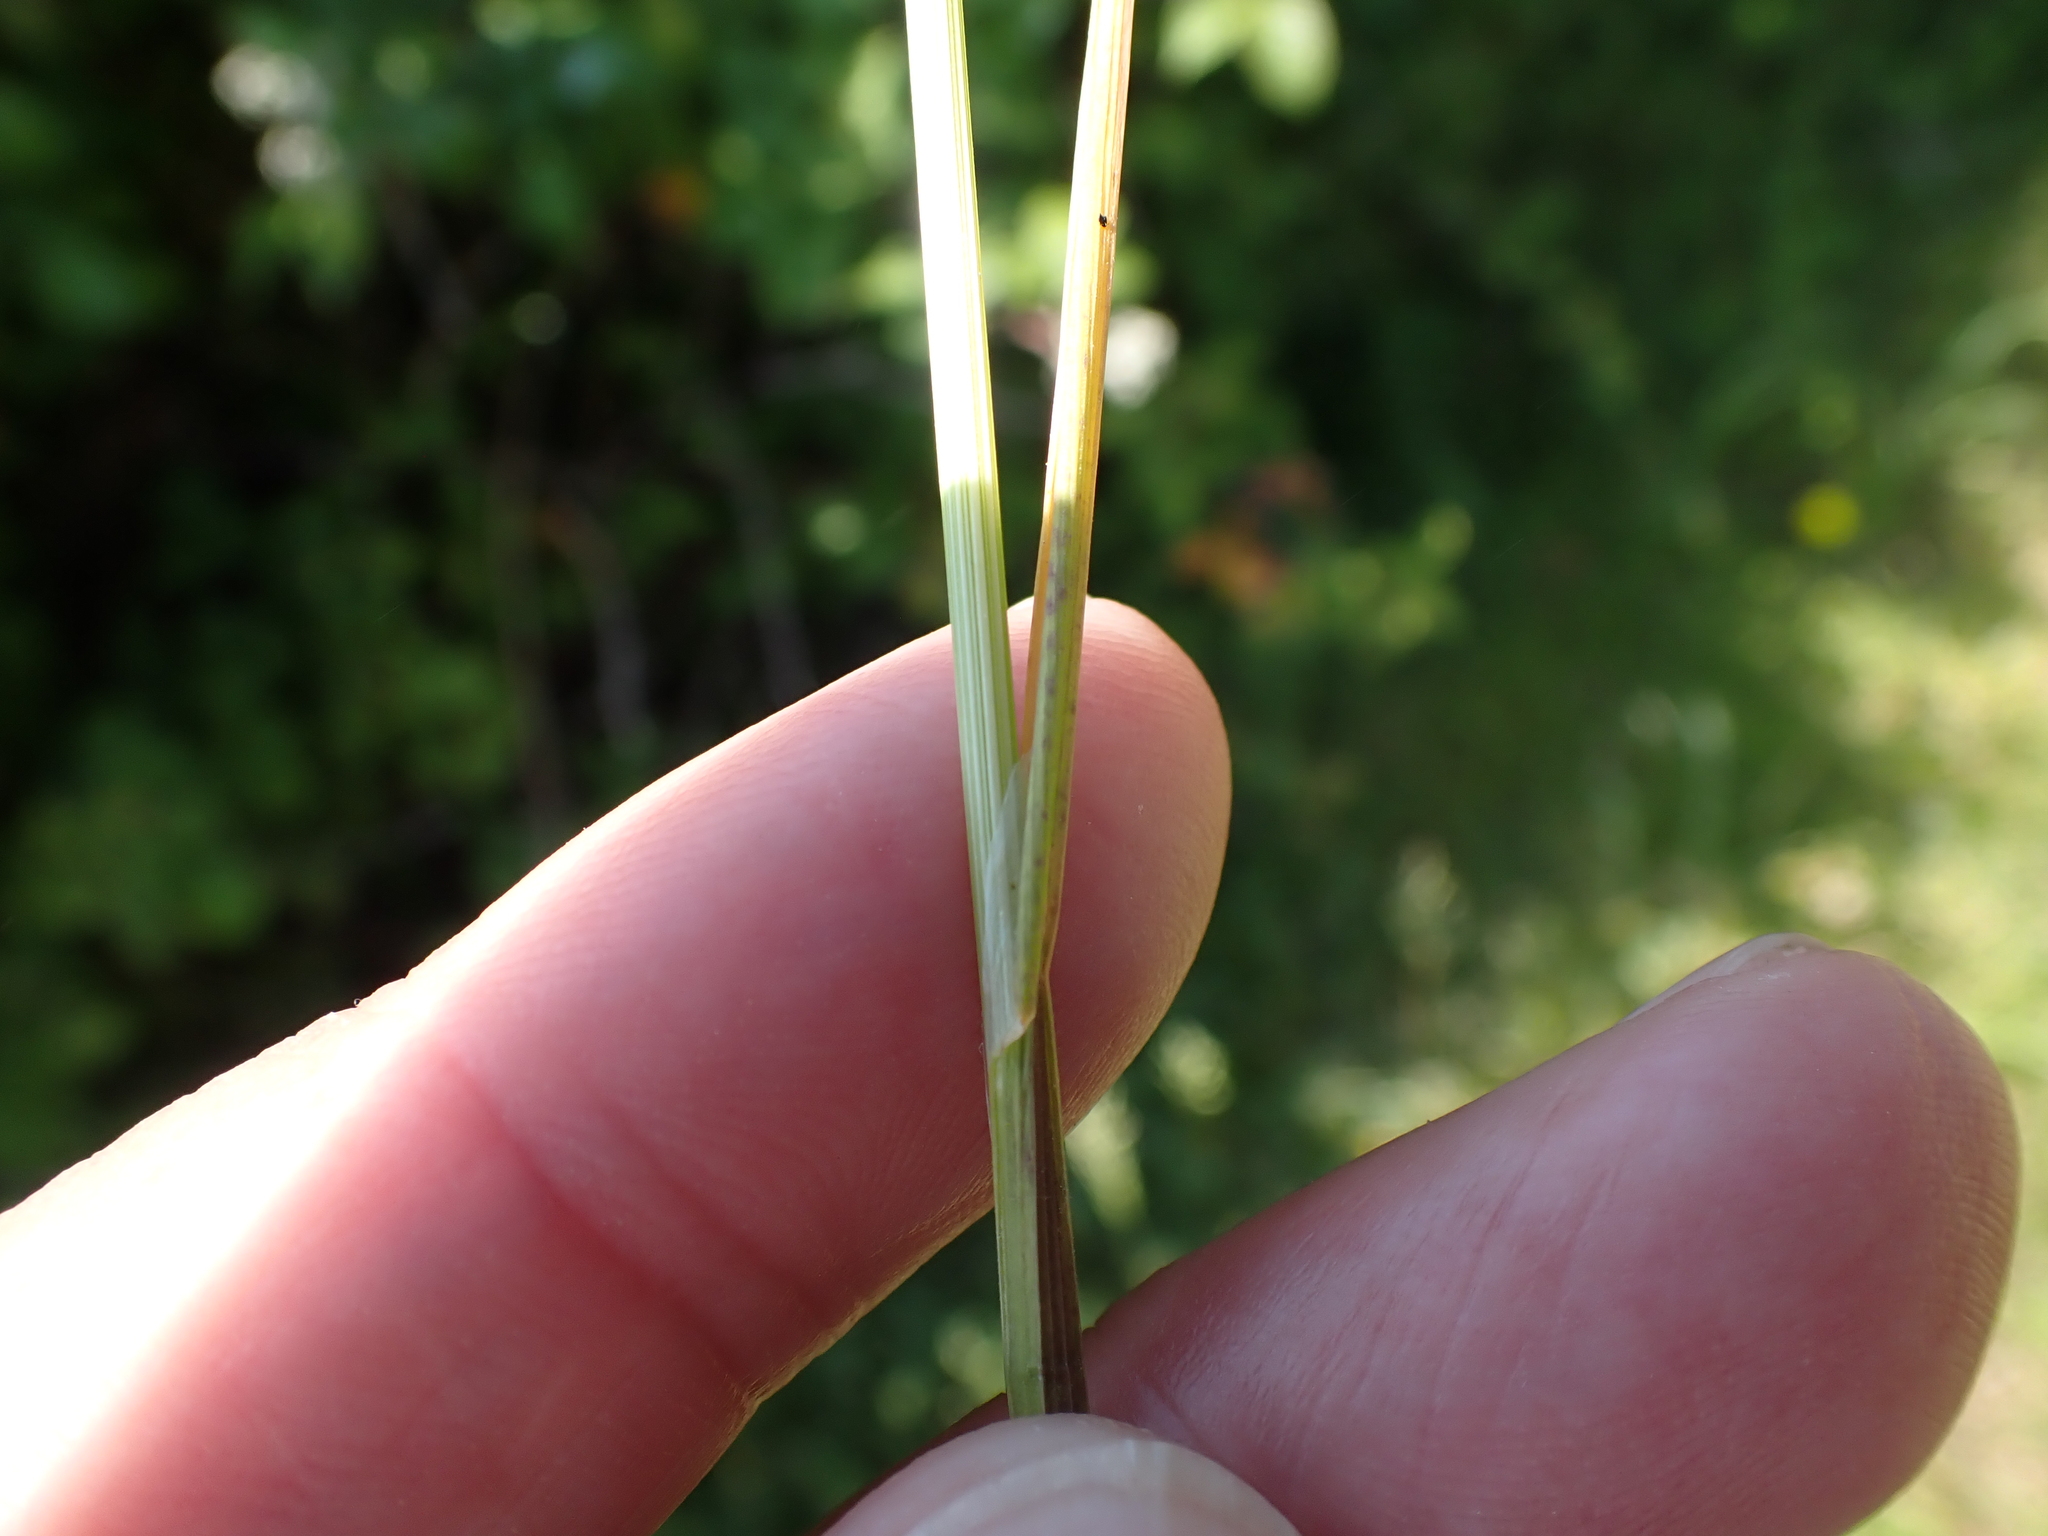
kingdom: Plantae
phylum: Tracheophyta
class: Liliopsida
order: Poales
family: Poaceae
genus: Poa
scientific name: Poa trivialis
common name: Rough bluegrass
